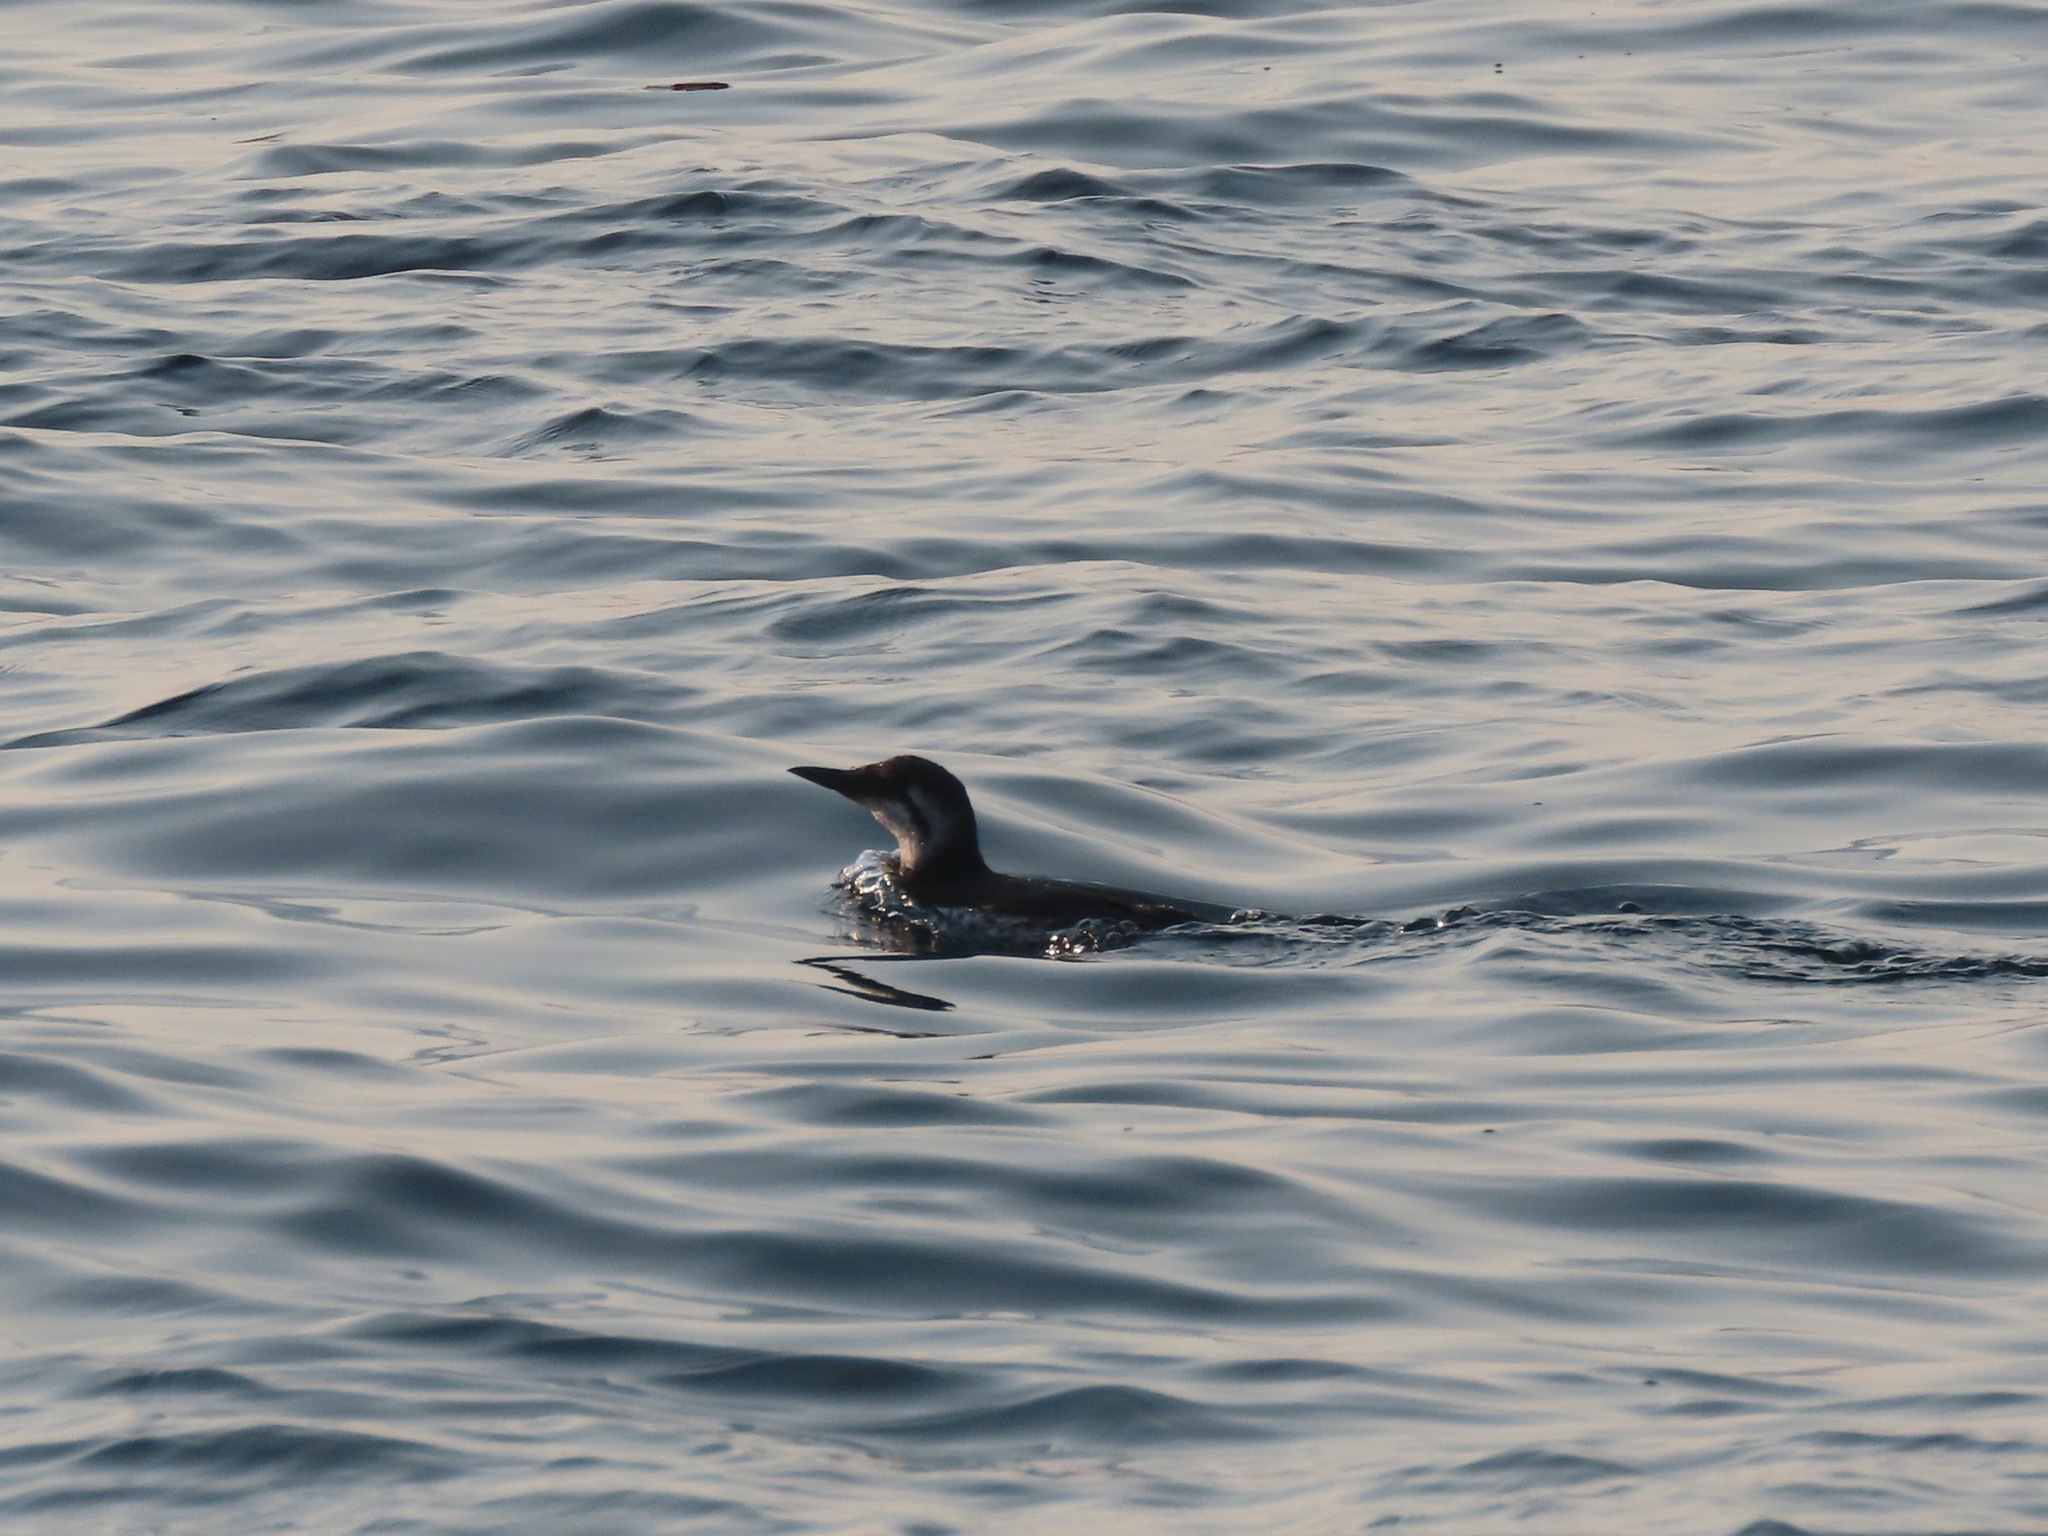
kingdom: Animalia
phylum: Chordata
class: Aves
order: Charadriiformes
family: Alcidae
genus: Uria
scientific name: Uria aalge
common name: Common murre
